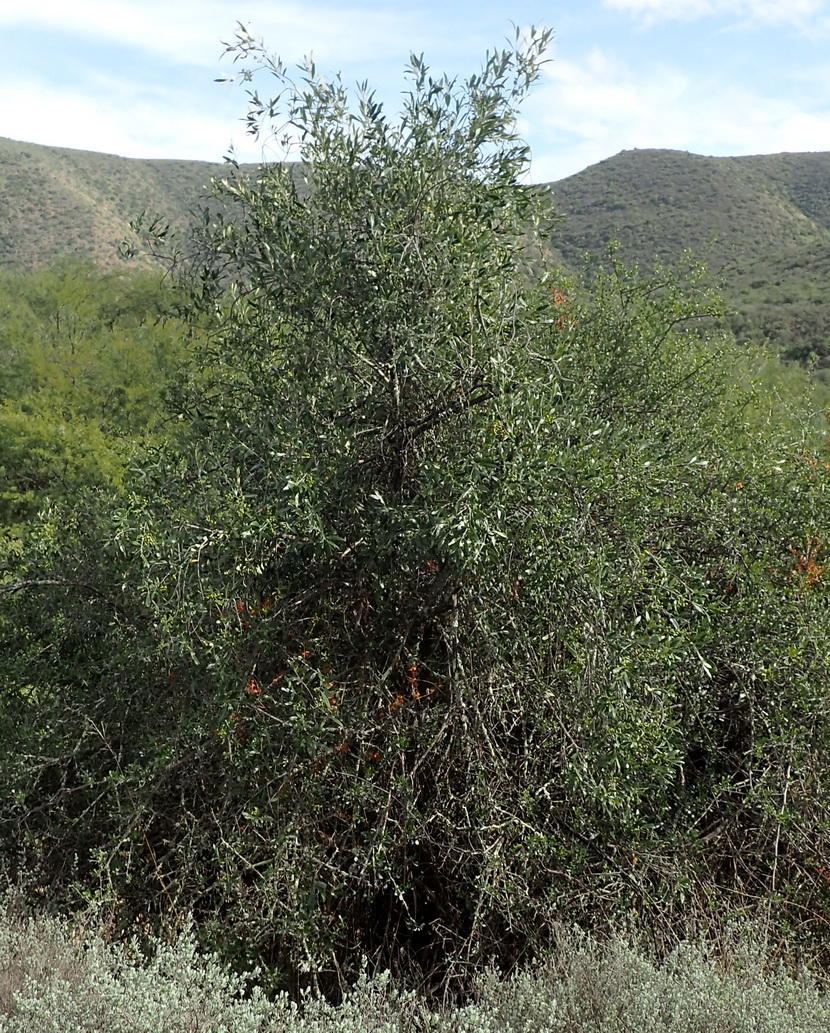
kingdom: Plantae
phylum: Tracheophyta
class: Magnoliopsida
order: Lamiales
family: Oleaceae
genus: Olea
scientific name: Olea europaea
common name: Olive
